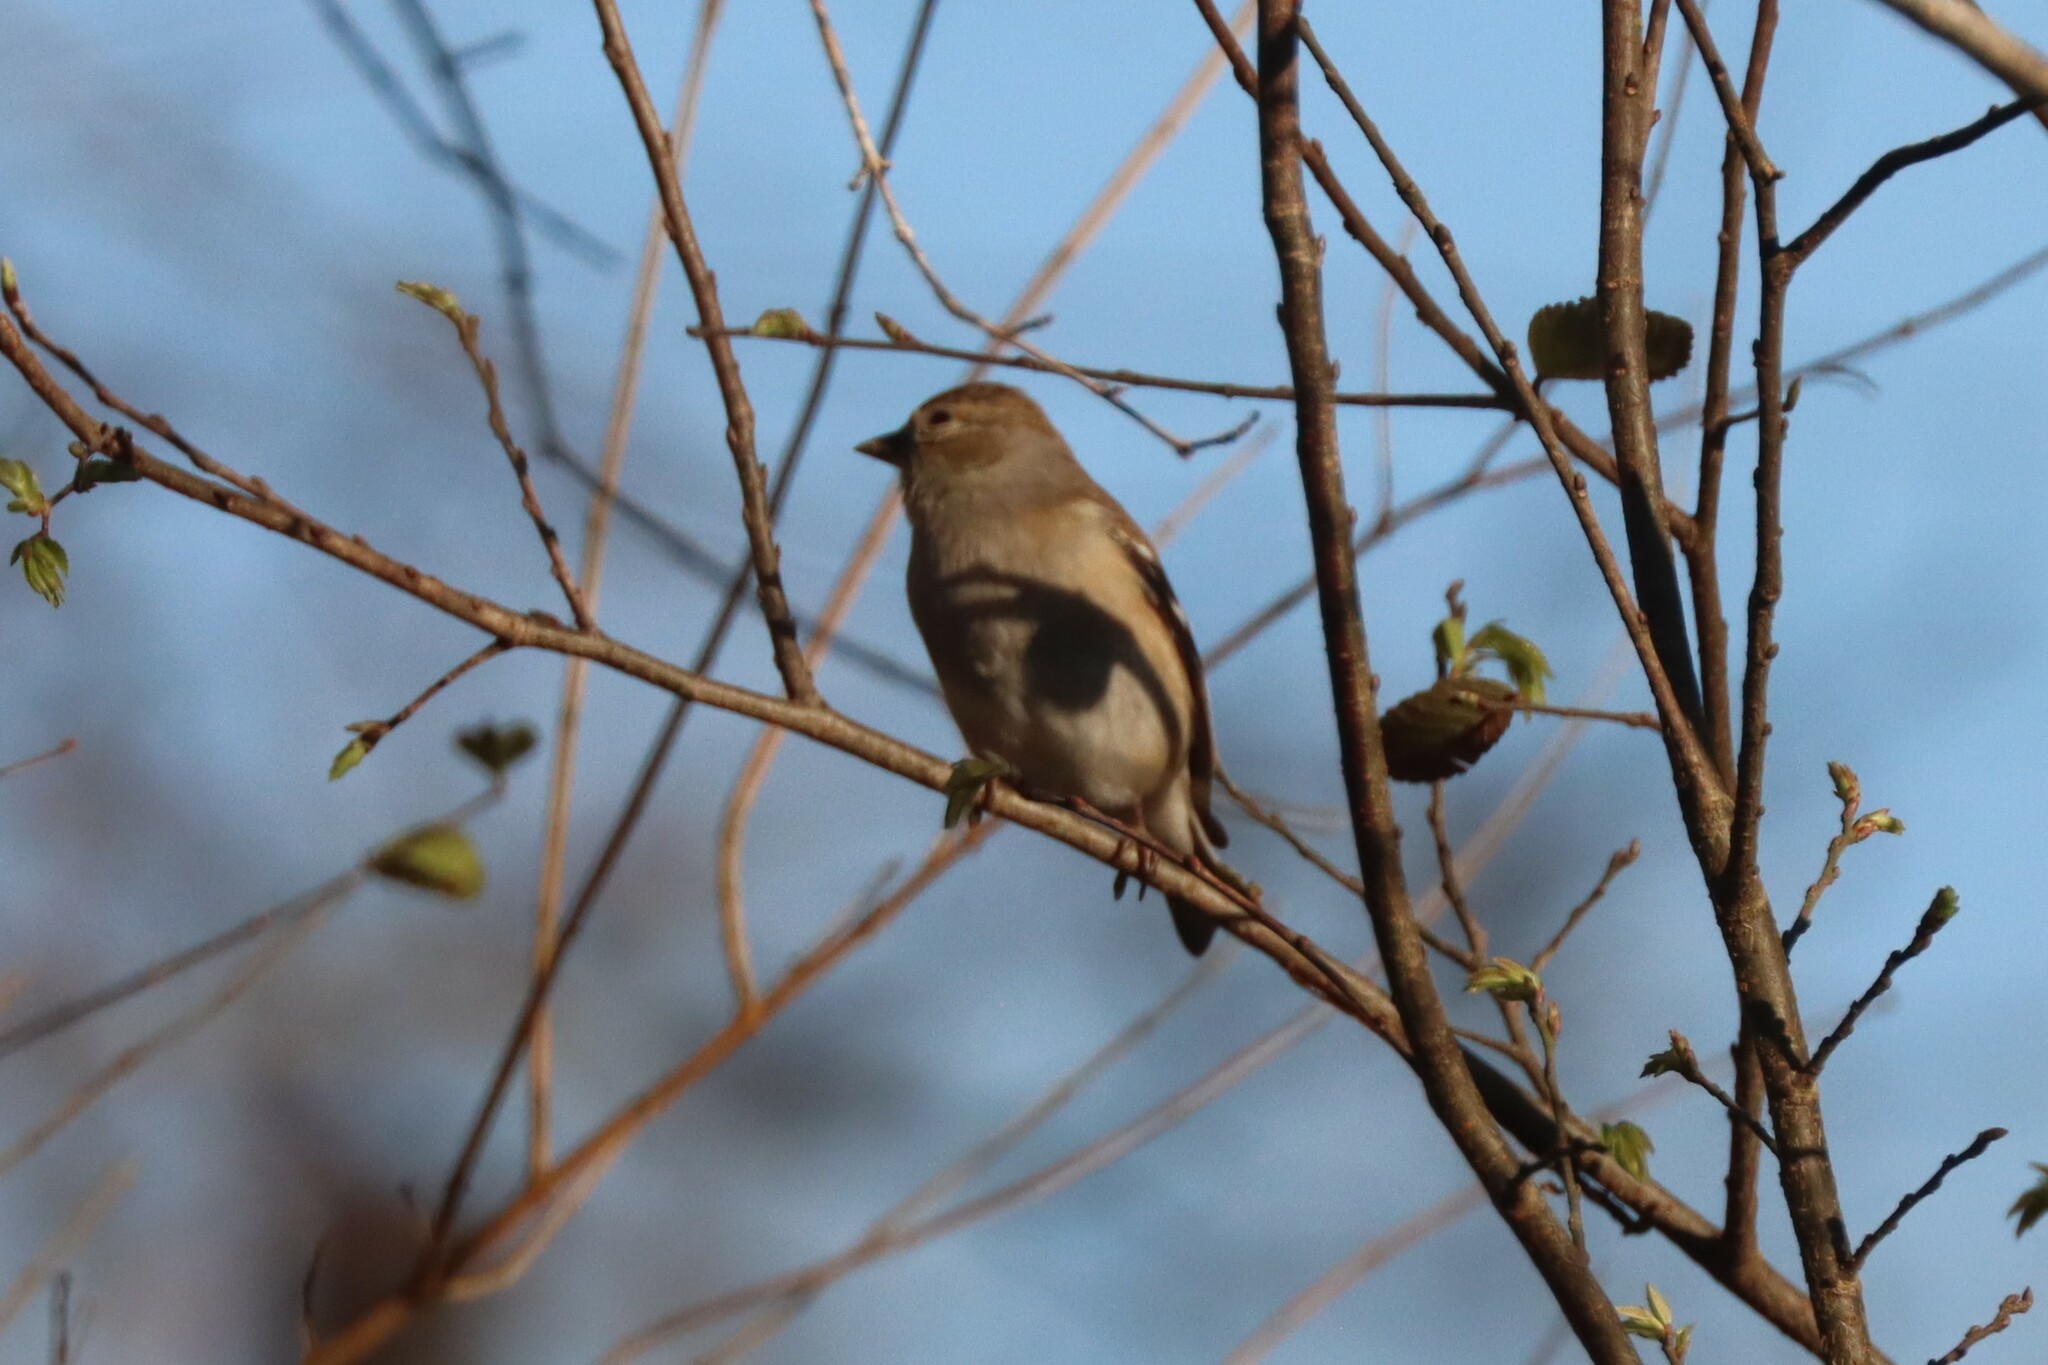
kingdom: Animalia
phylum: Chordata
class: Aves
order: Passeriformes
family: Fringillidae
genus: Spinus
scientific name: Spinus tristis
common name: American goldfinch
